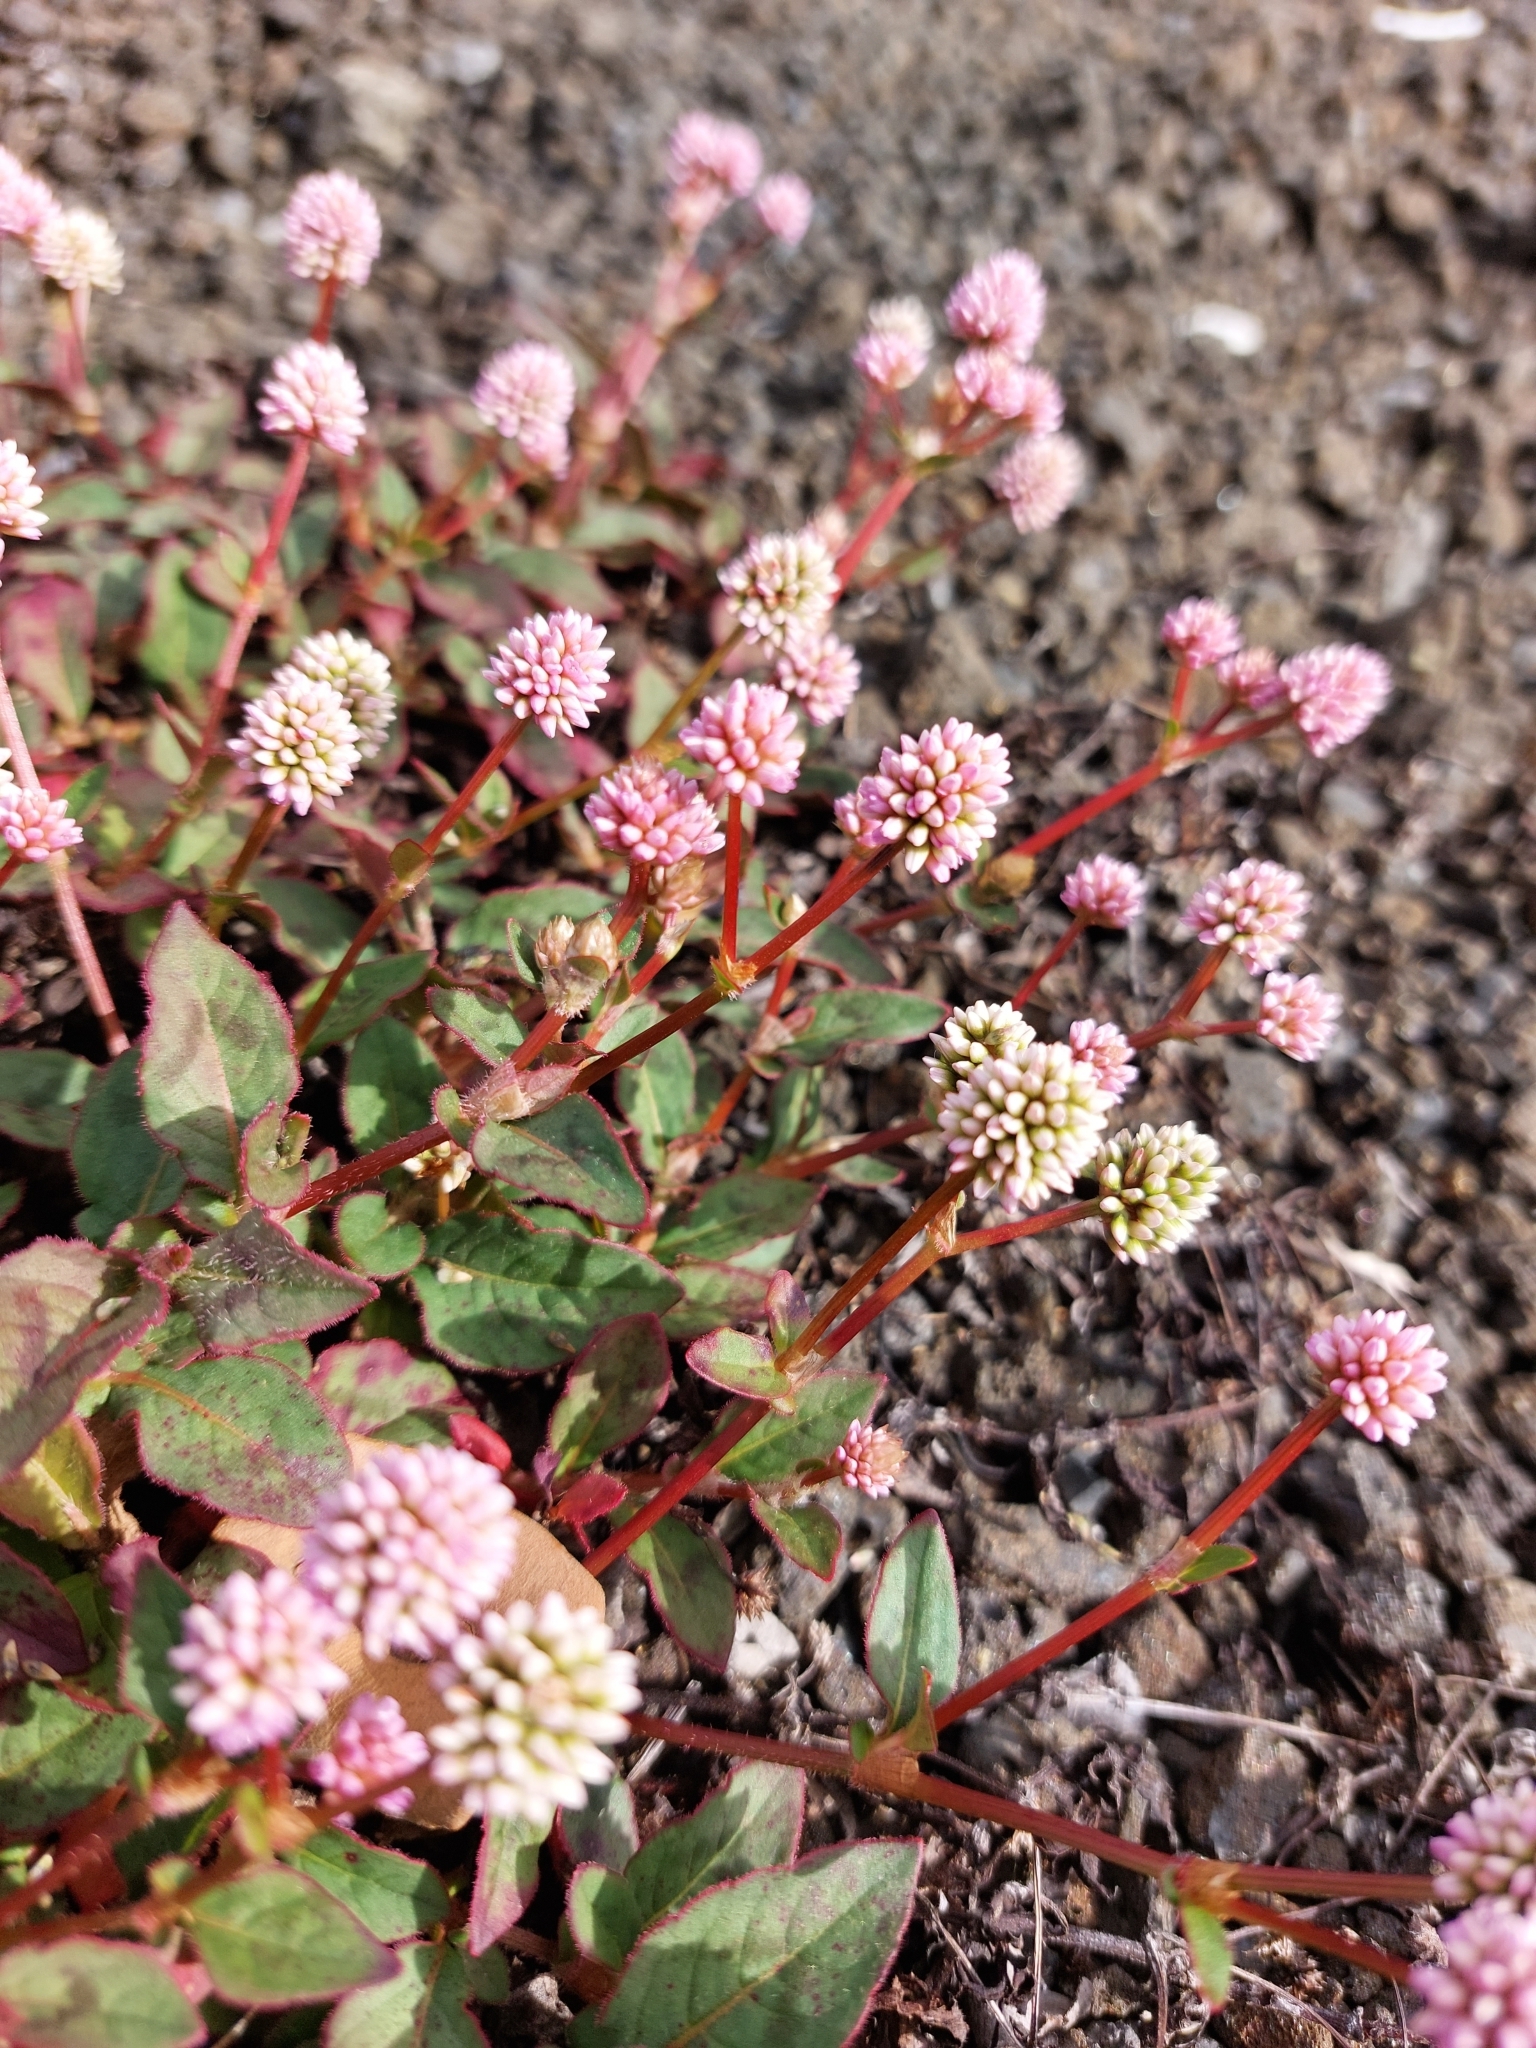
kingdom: Plantae
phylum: Tracheophyta
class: Magnoliopsida
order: Caryophyllales
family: Polygonaceae
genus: Persicaria
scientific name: Persicaria capitata
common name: Pinkhead smartweed
